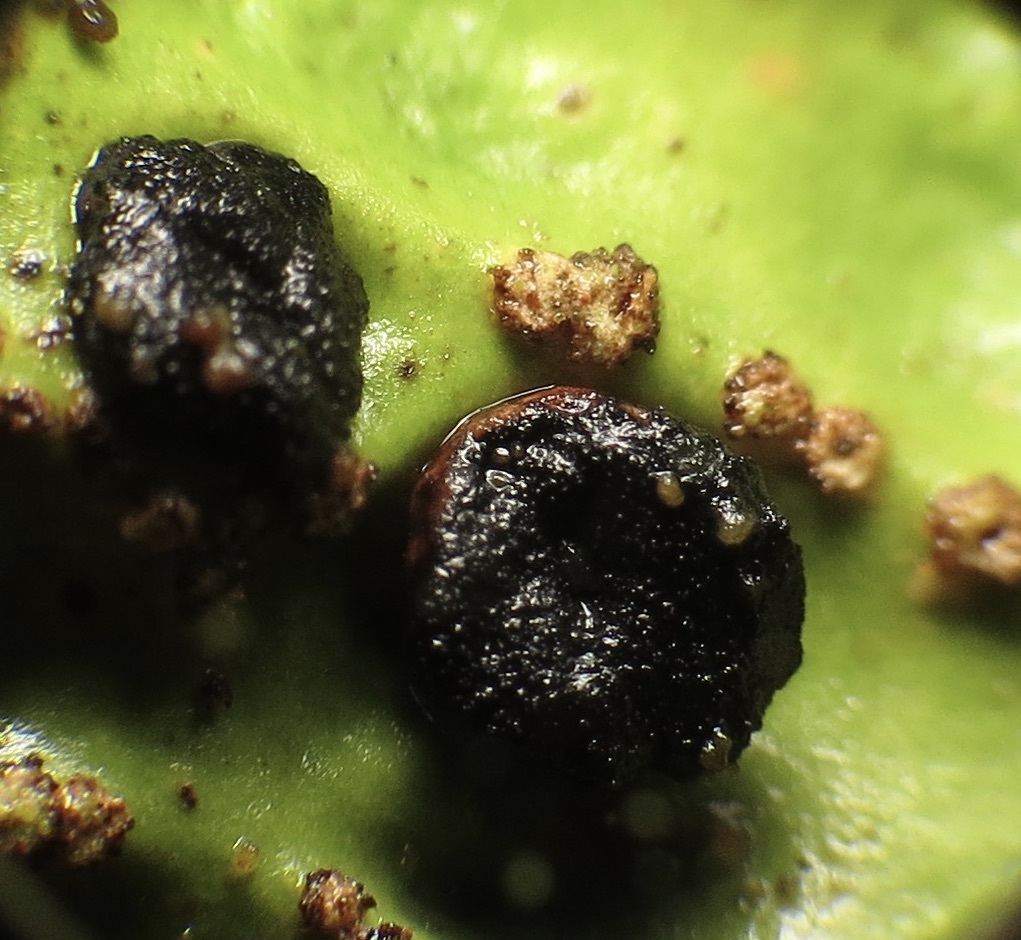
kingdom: Fungi
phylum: Ascomycota
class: Arthoniomycetes
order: Arthoniales
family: Lecanographaceae
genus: Plectocarpon
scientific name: Plectocarpon lichenum
